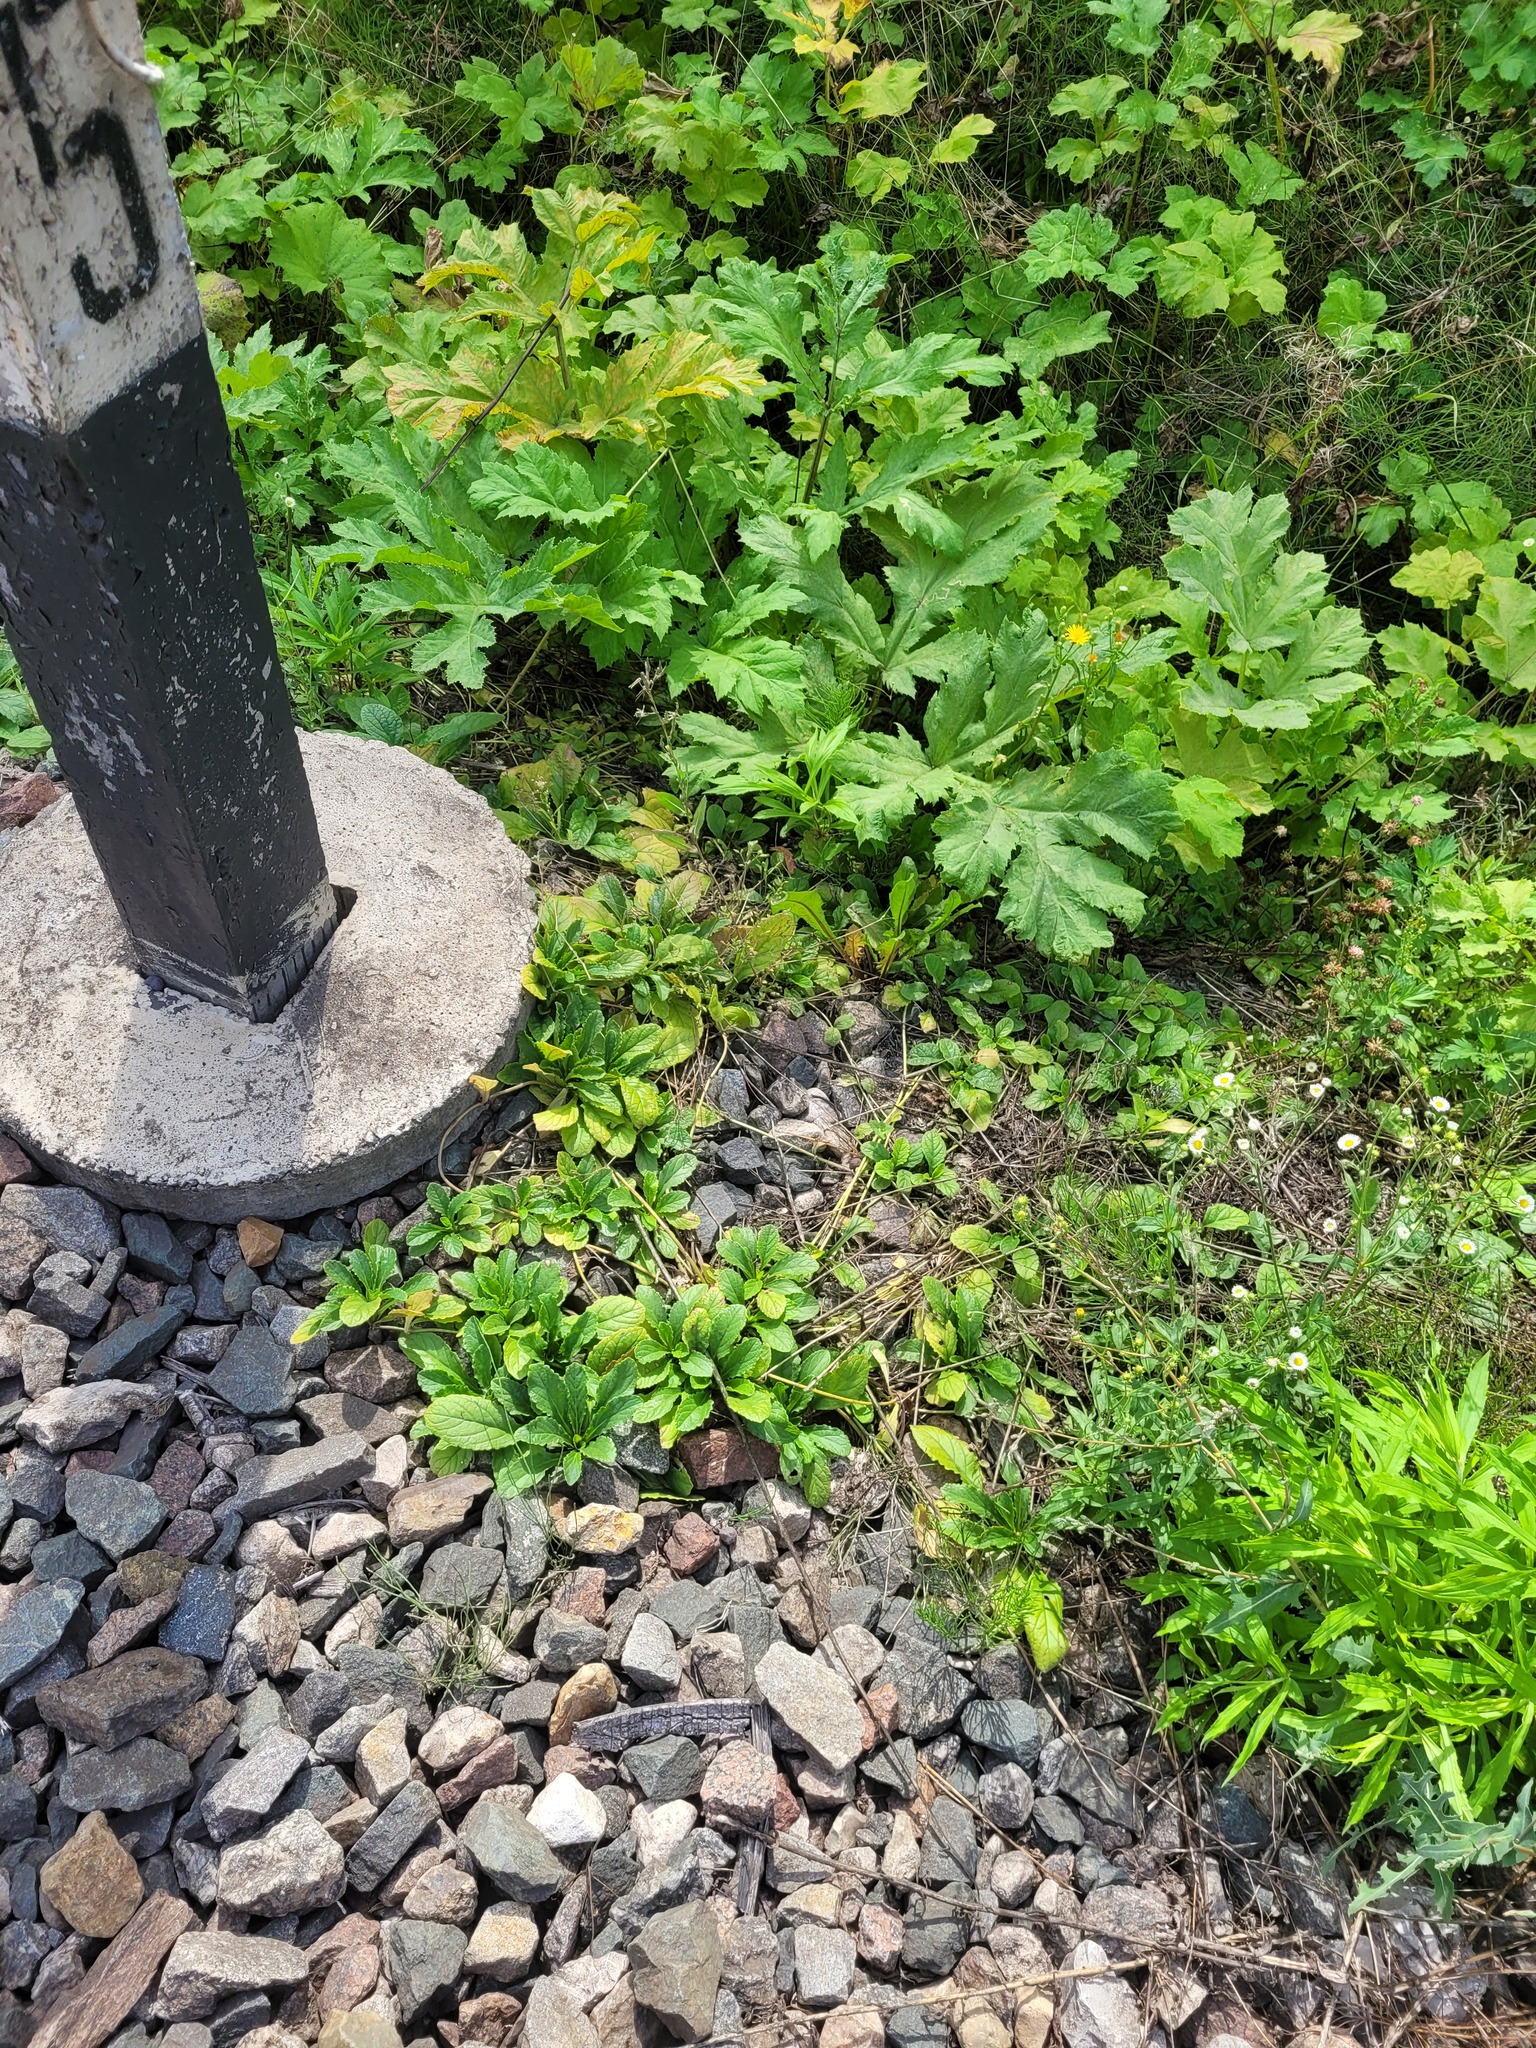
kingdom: Plantae
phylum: Tracheophyta
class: Magnoliopsida
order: Lamiales
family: Lamiaceae
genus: Ajuga
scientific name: Ajuga reptans
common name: Bugle
